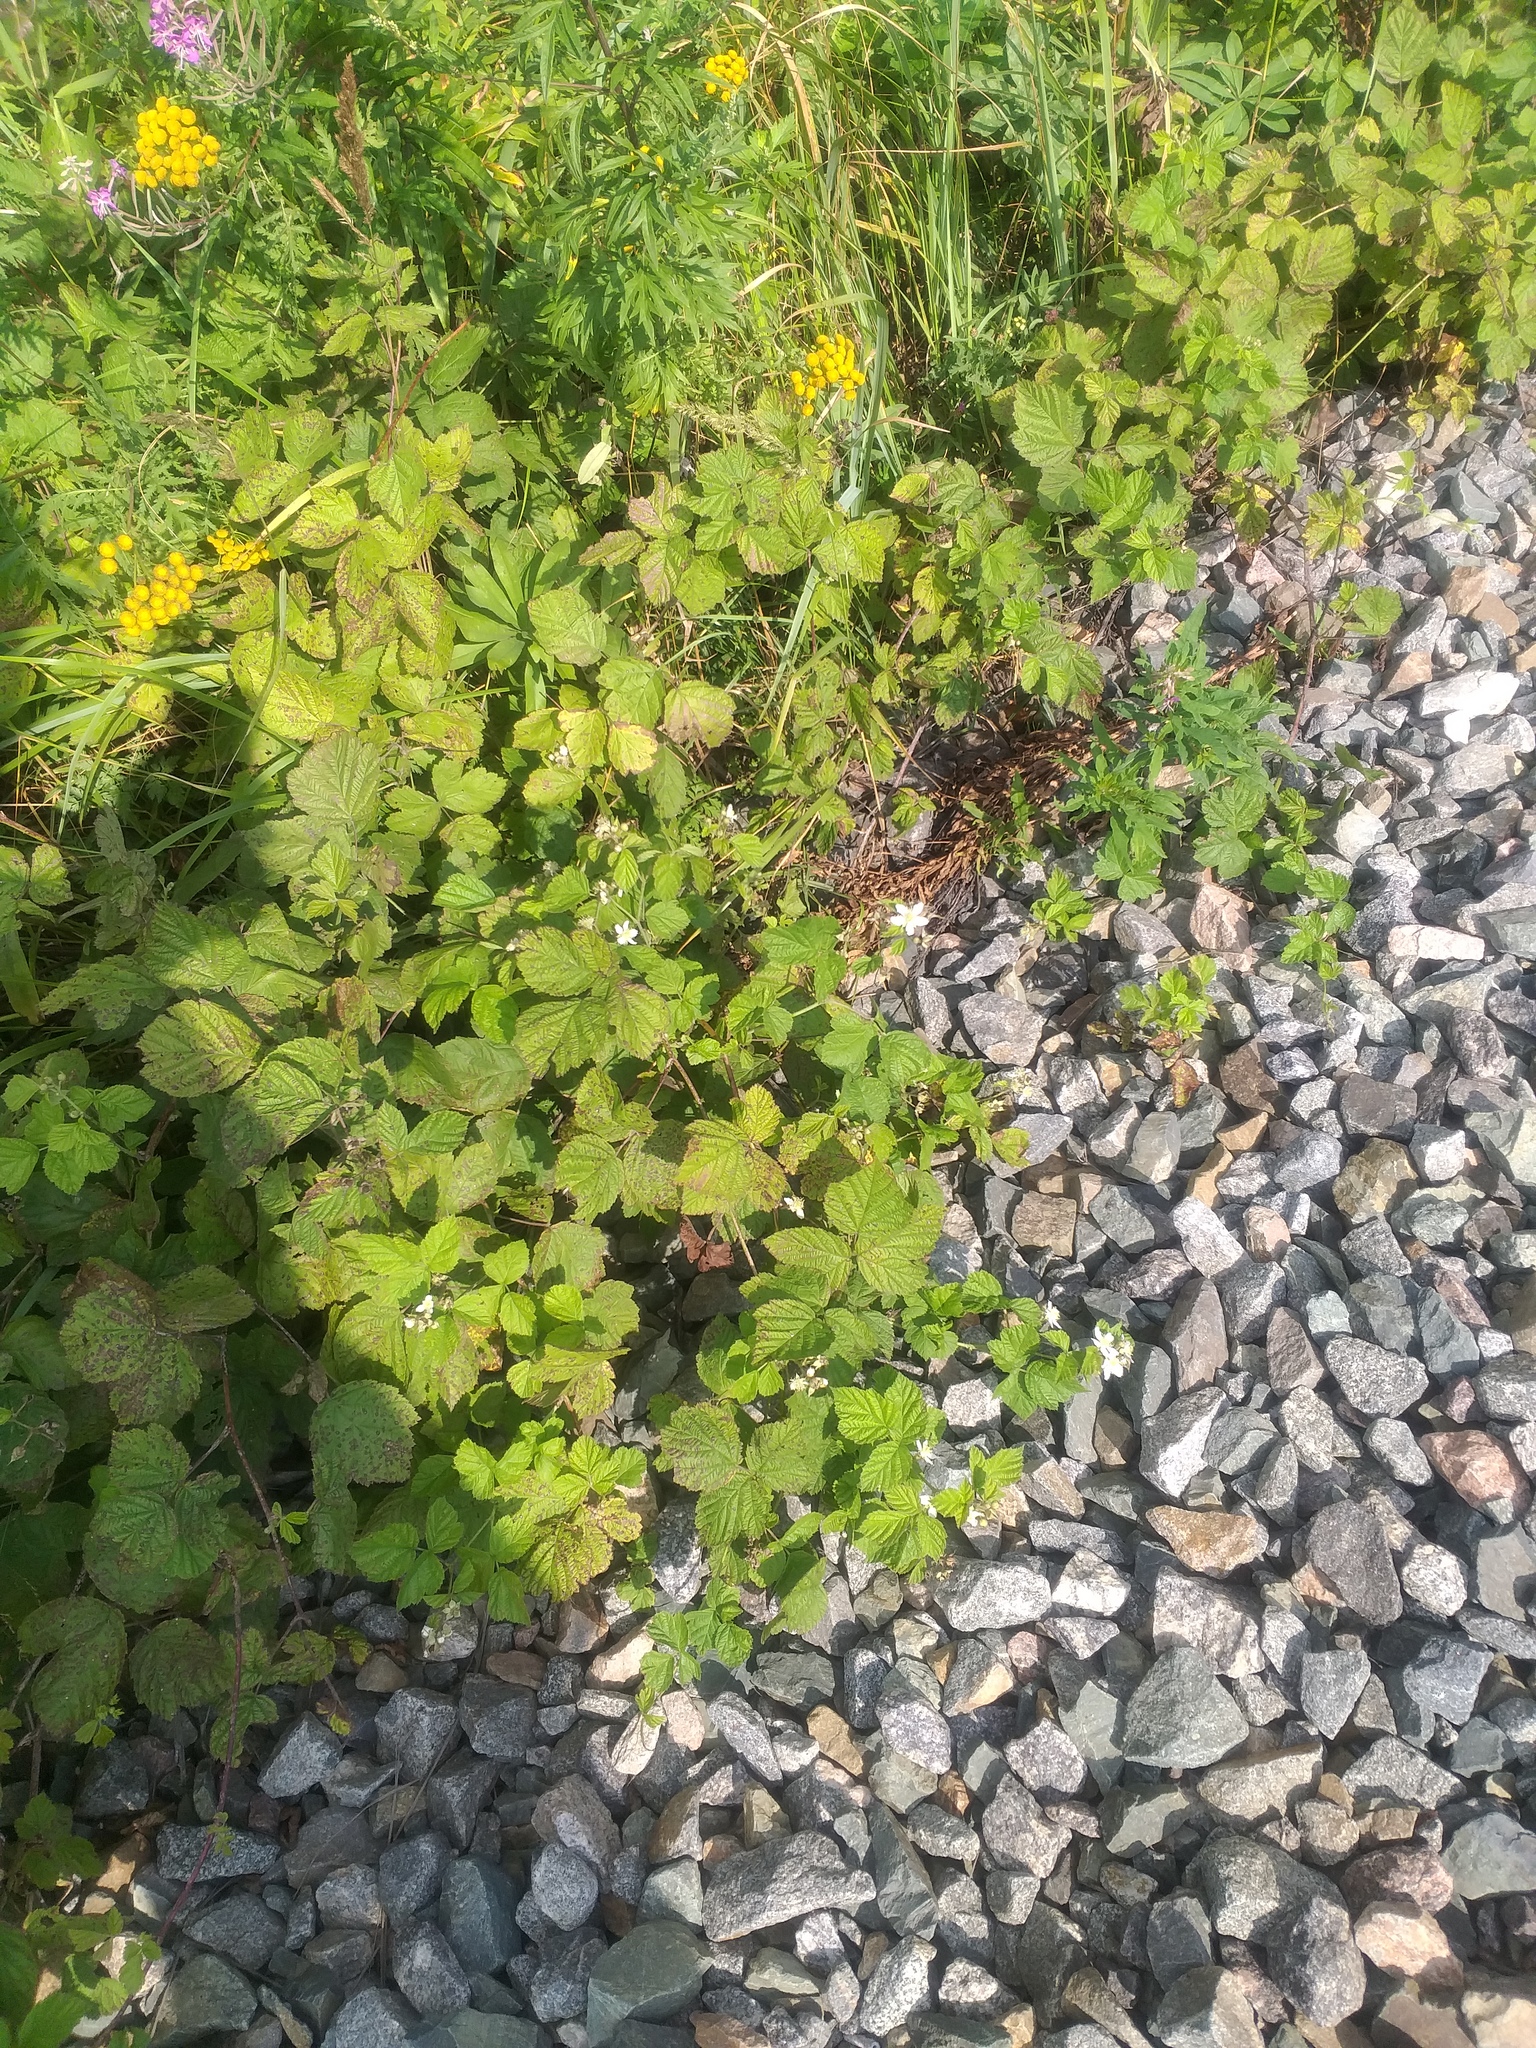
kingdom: Plantae
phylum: Tracheophyta
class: Magnoliopsida
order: Rosales
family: Rosaceae
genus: Rubus
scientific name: Rubus caesius
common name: Dewberry
